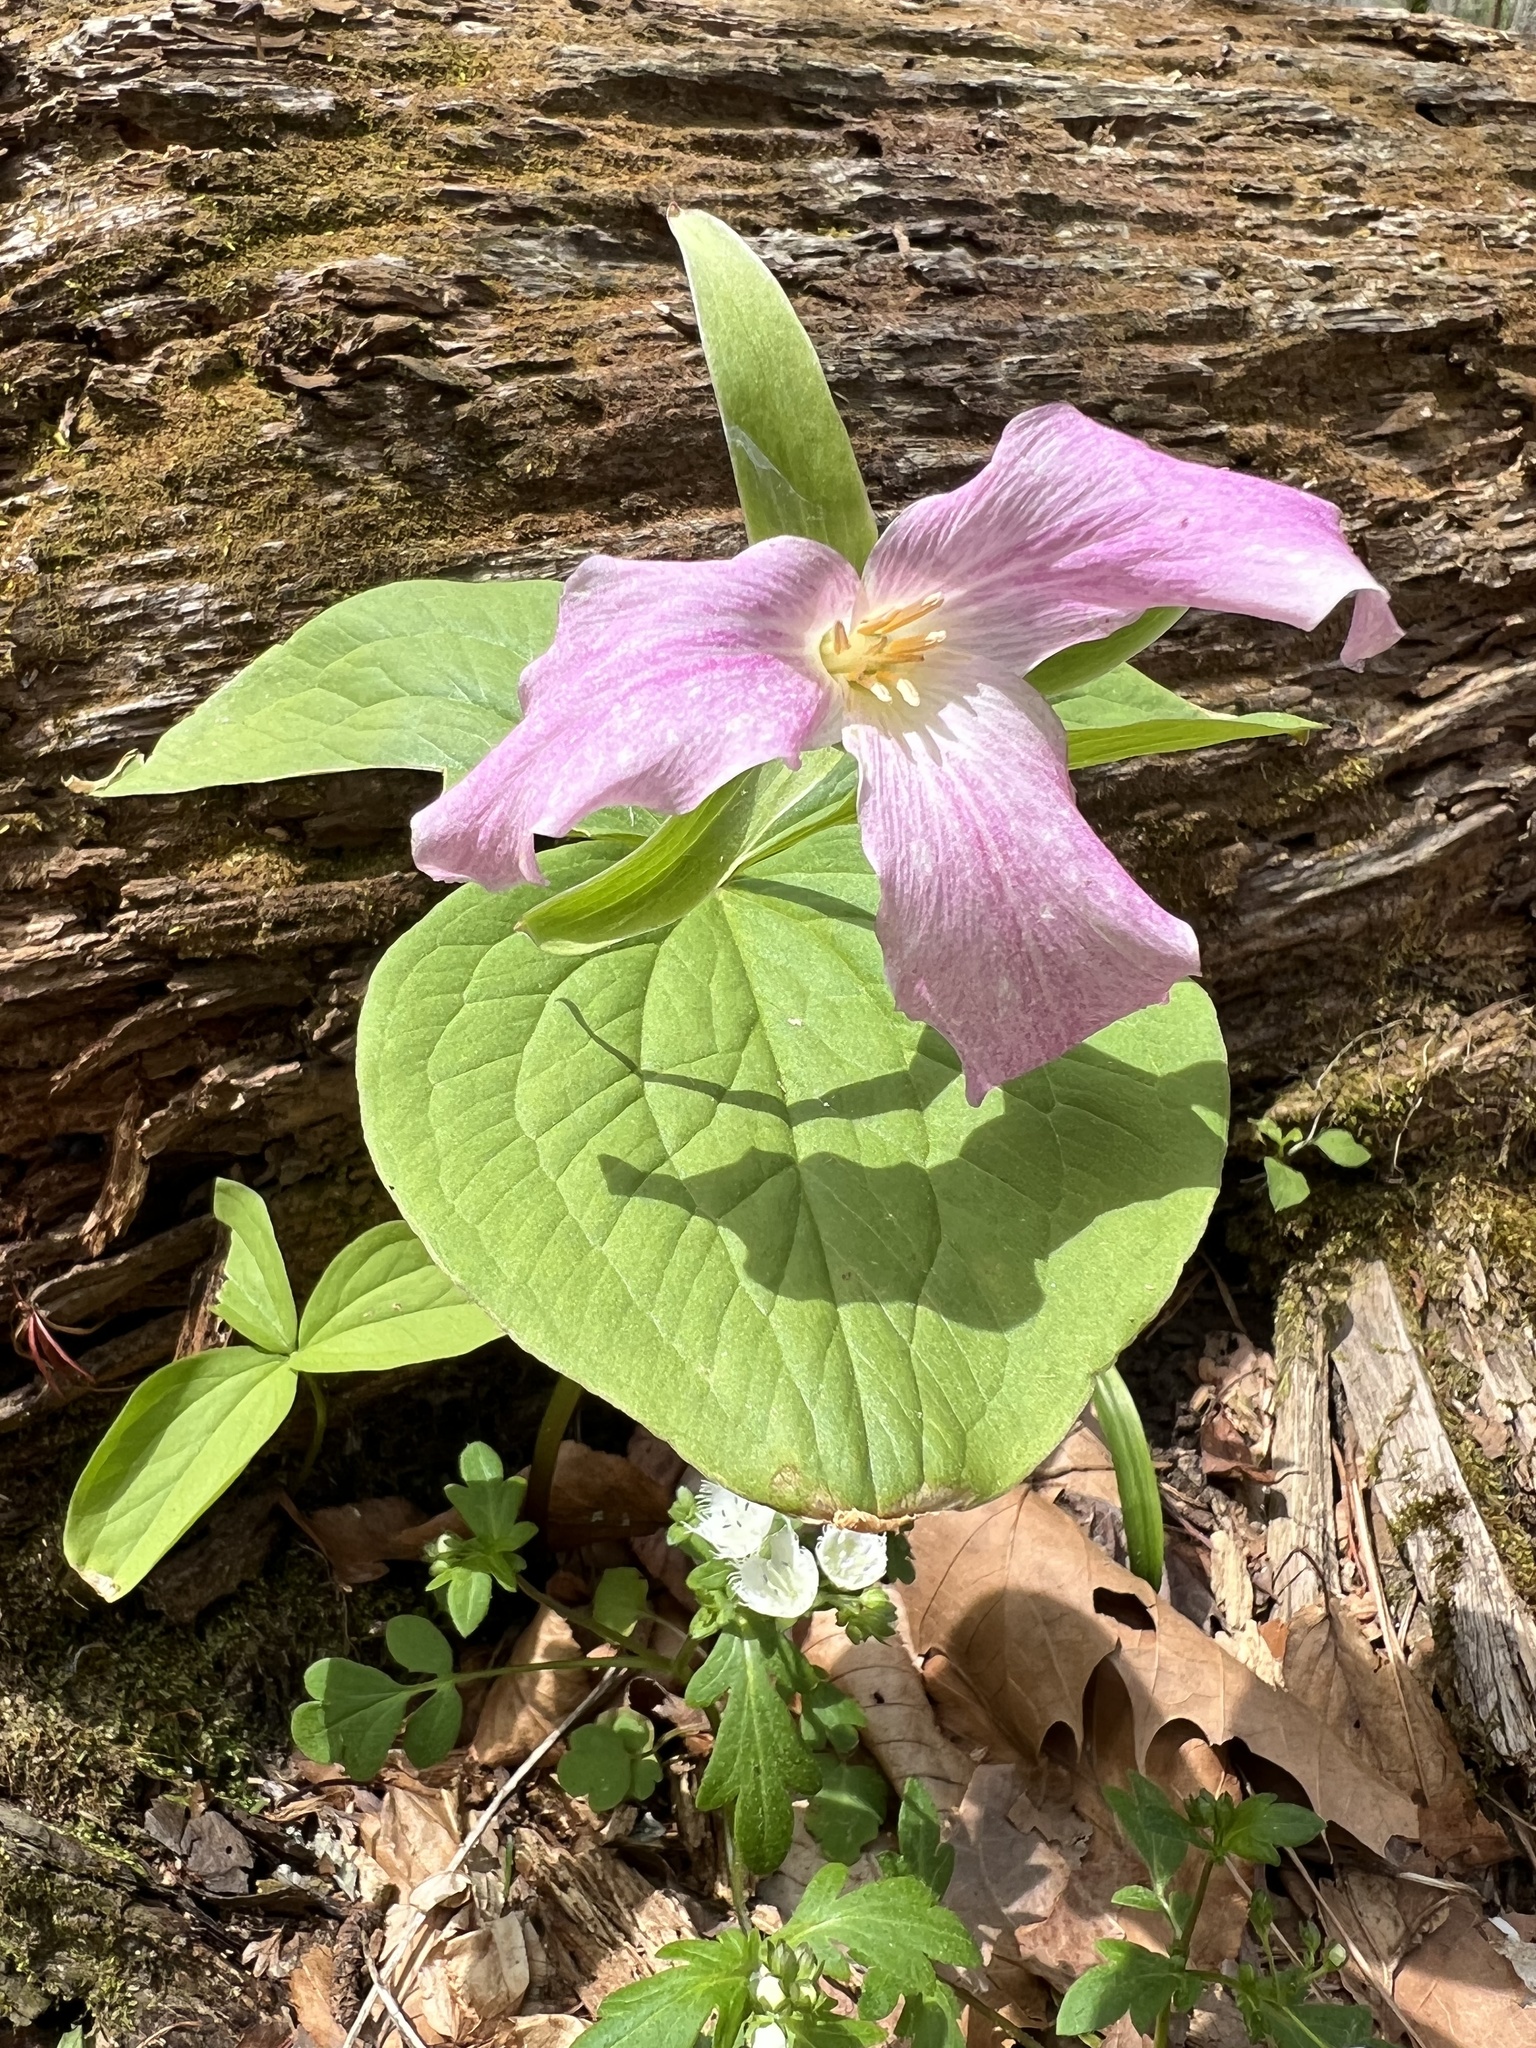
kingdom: Plantae
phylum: Tracheophyta
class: Liliopsida
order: Liliales
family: Melanthiaceae
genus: Trillium
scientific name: Trillium grandiflorum
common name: Great white trillium
